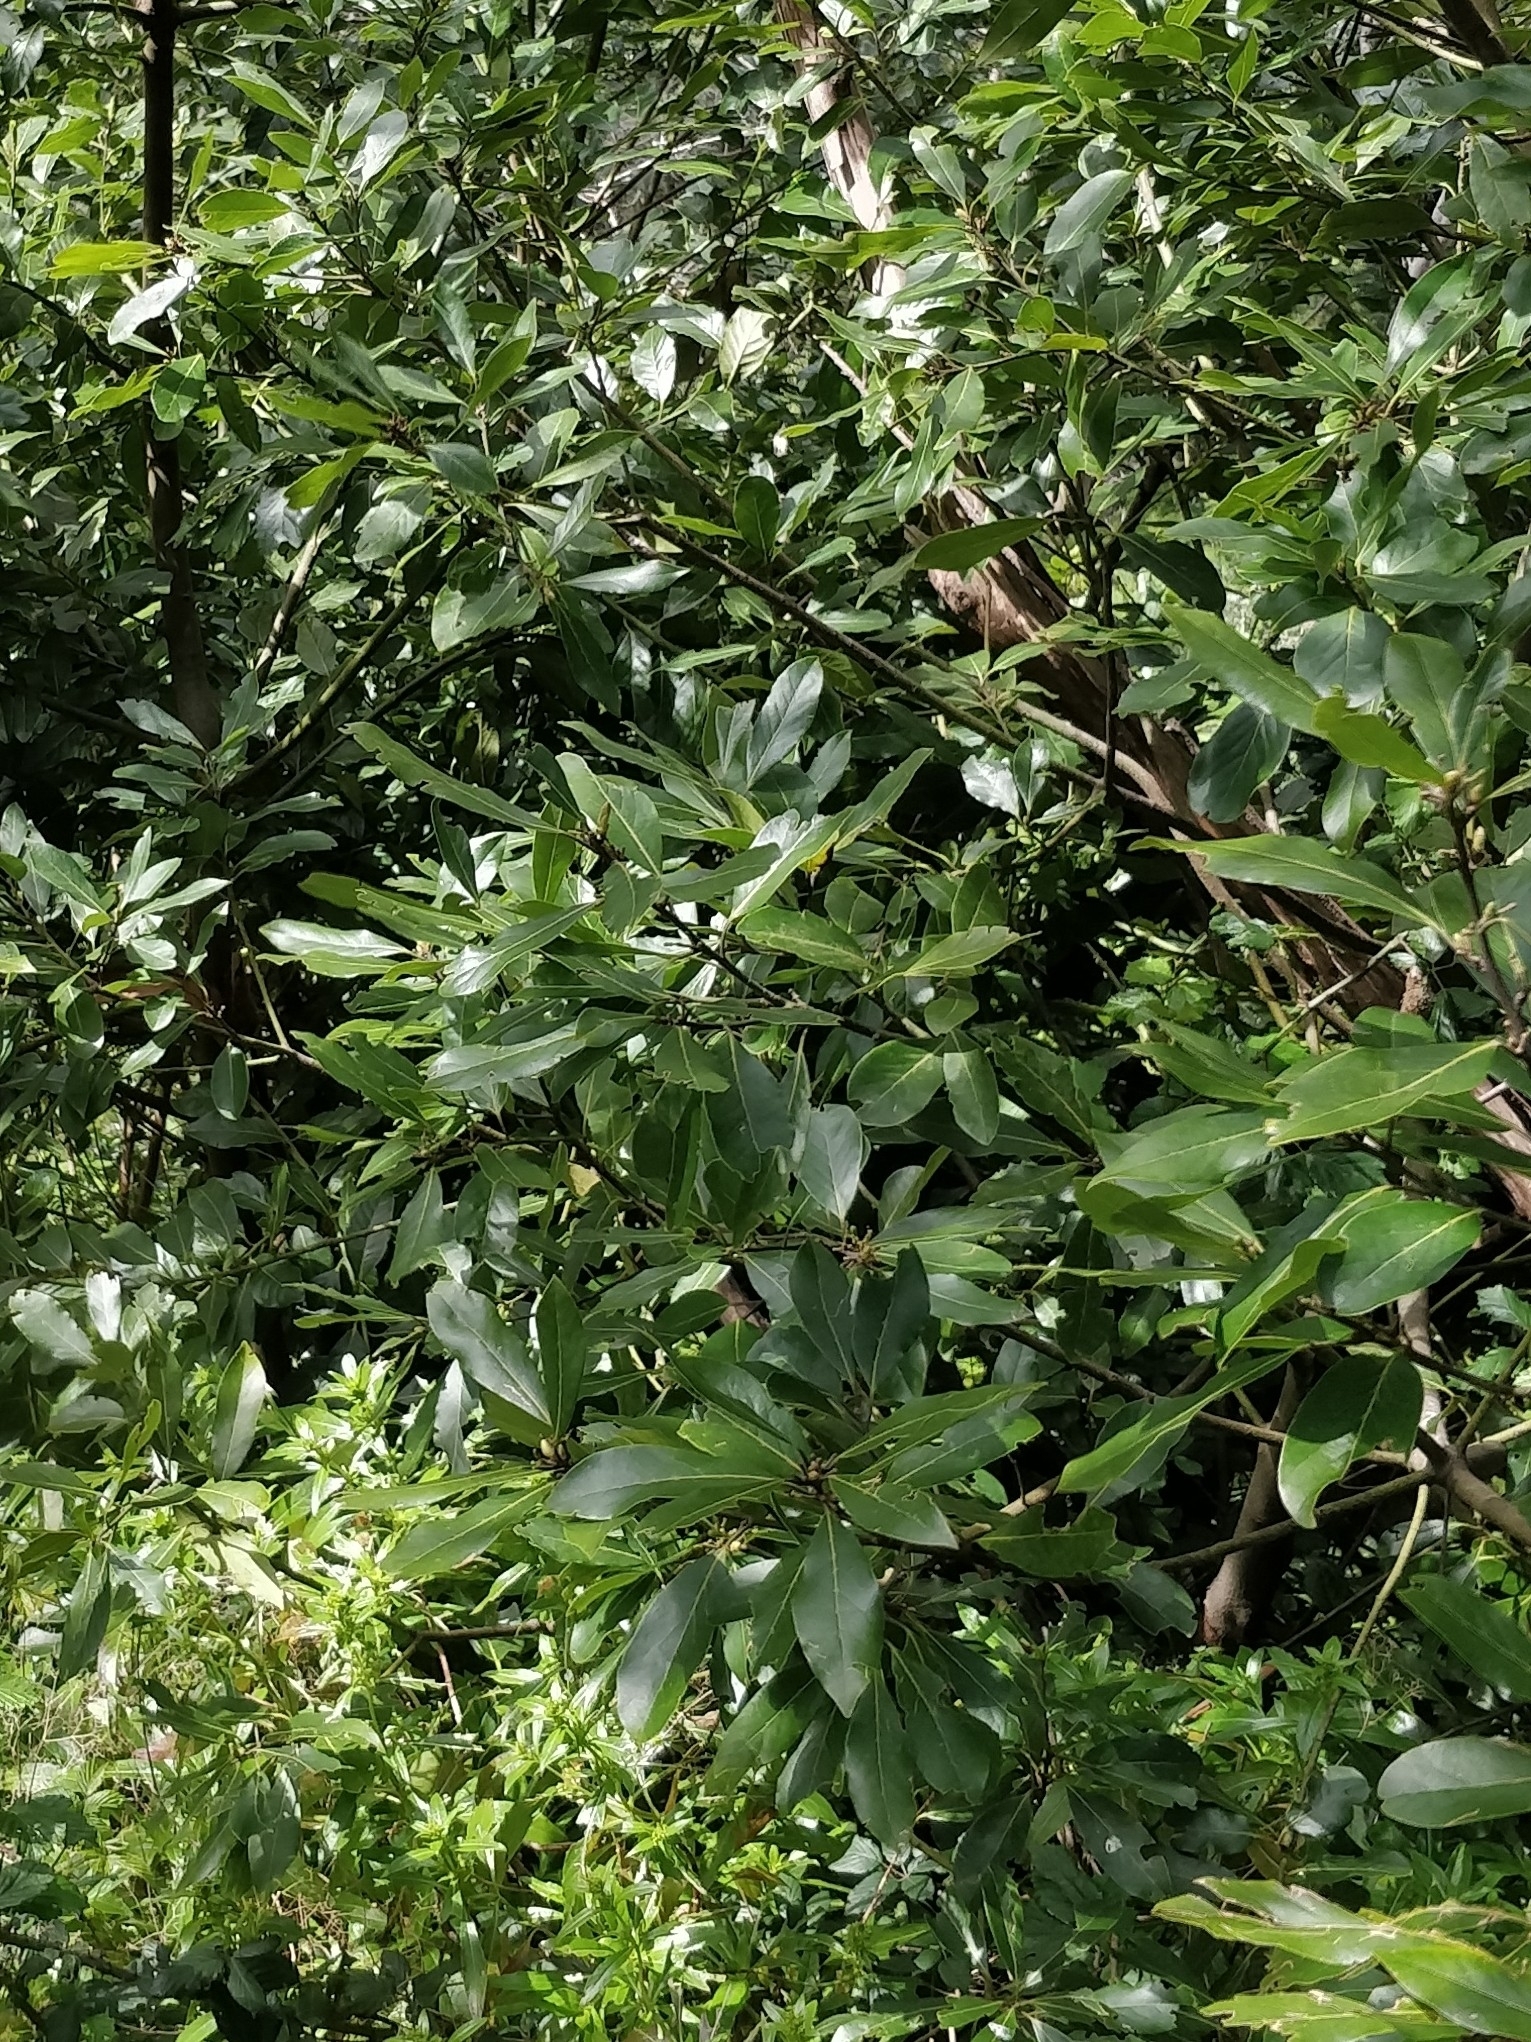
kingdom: Plantae
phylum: Tracheophyta
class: Magnoliopsida
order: Laurales
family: Lauraceae
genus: Laurus
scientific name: Laurus novocanariensis
